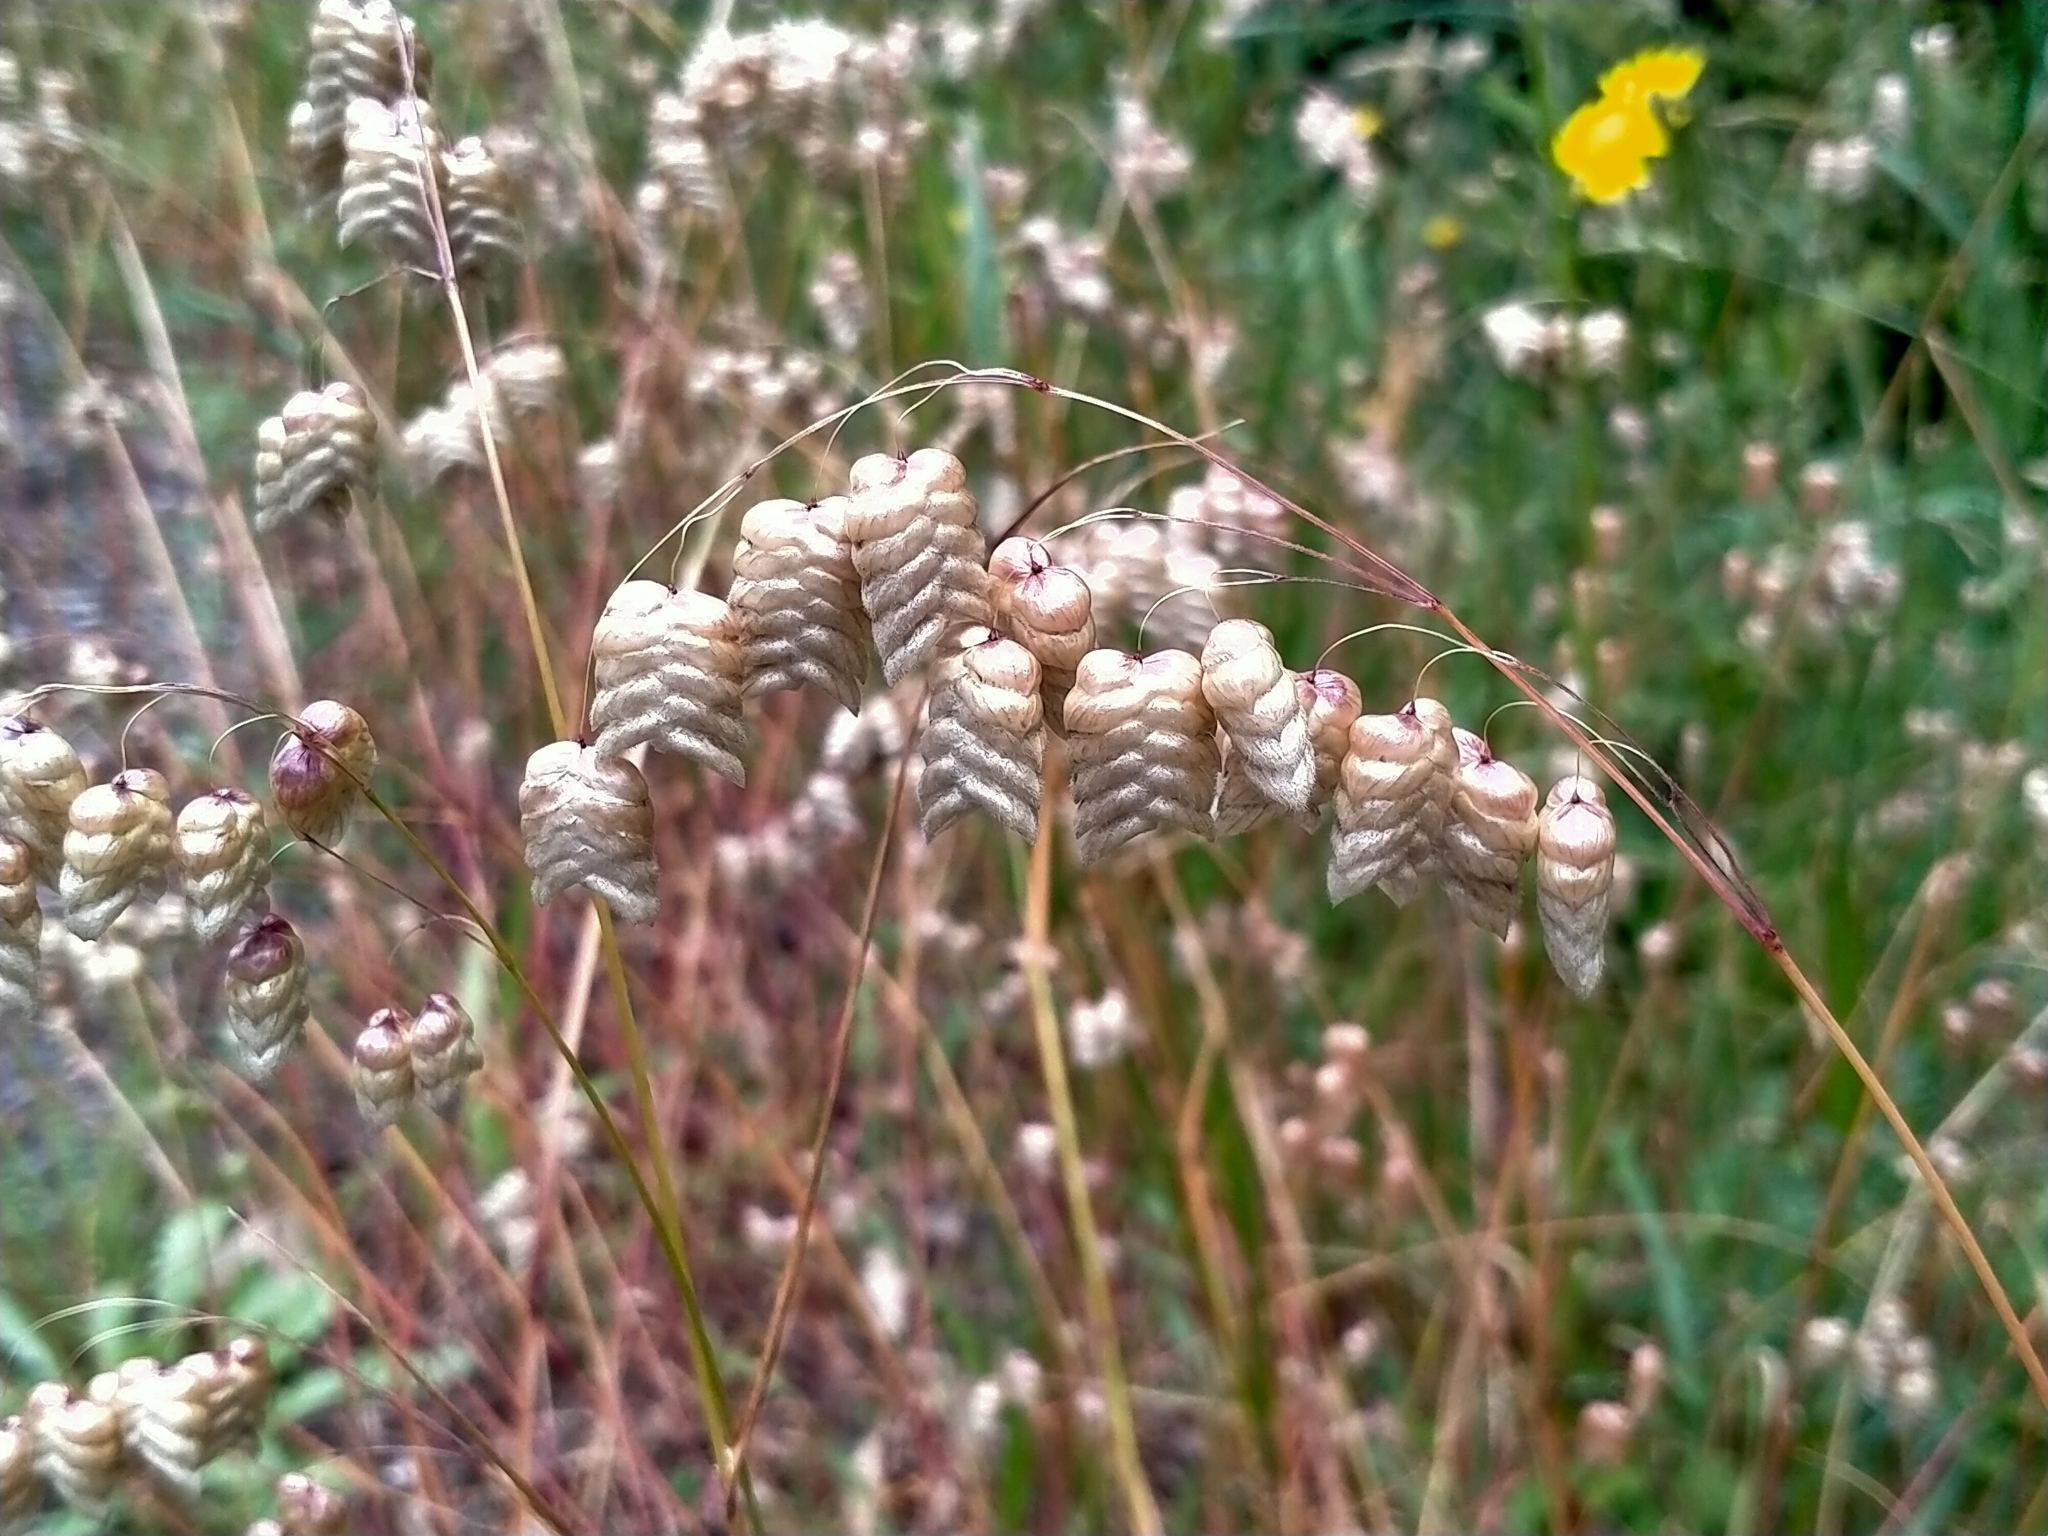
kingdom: Plantae
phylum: Tracheophyta
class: Liliopsida
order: Poales
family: Poaceae
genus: Briza
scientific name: Briza maxima
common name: Big quakinggrass
